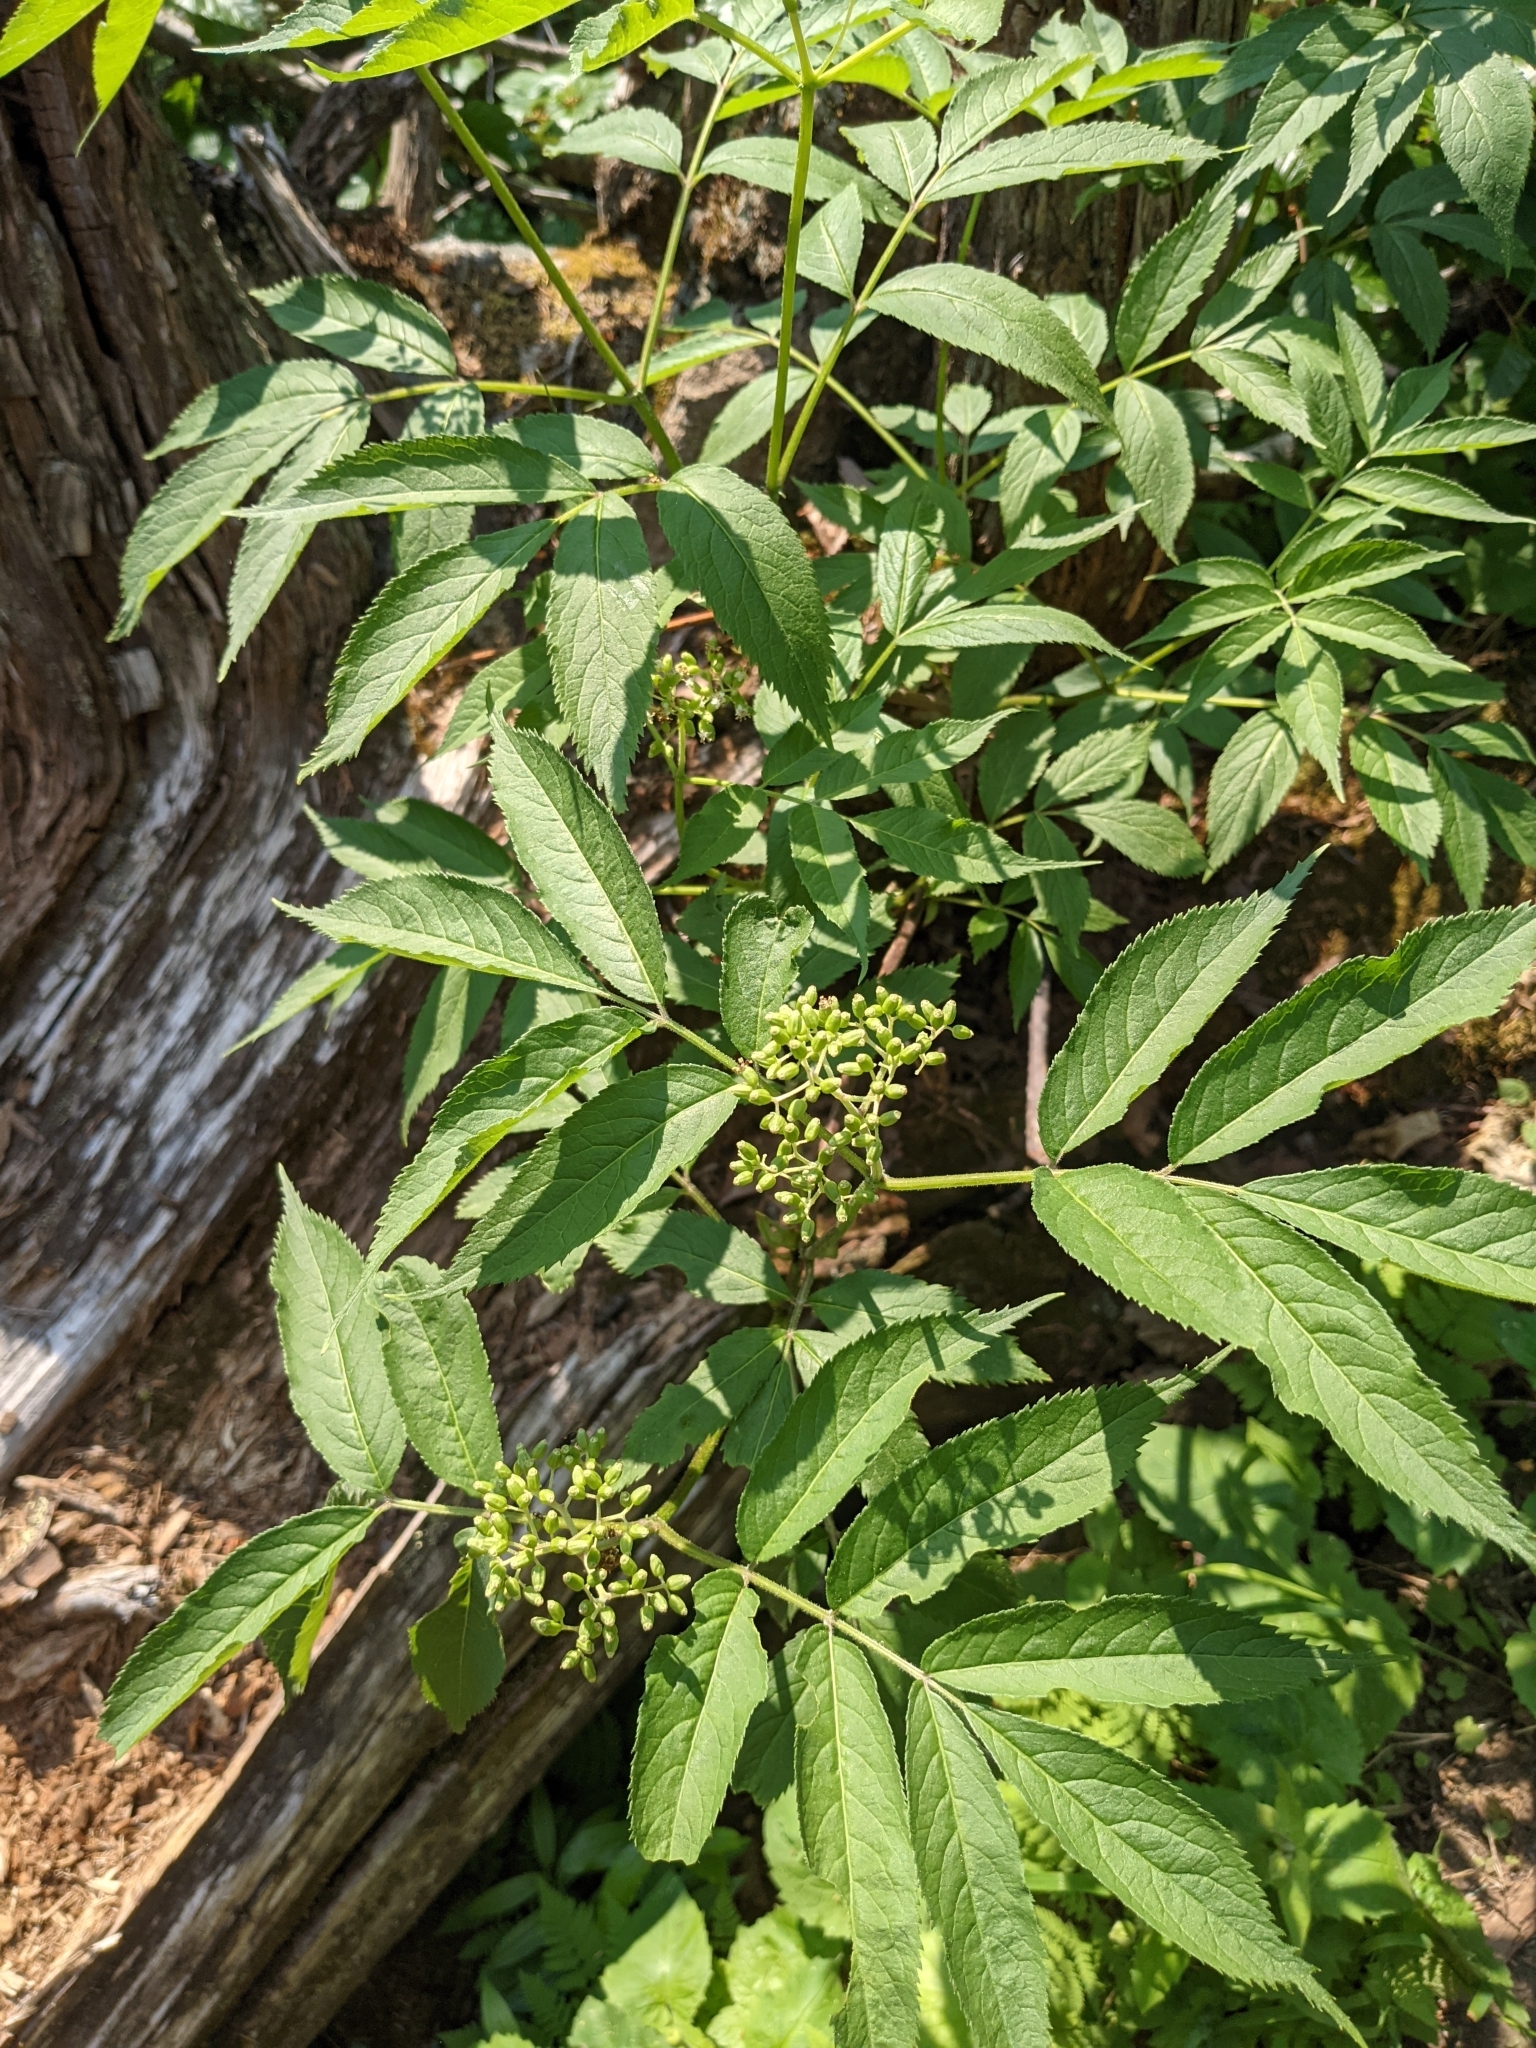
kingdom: Plantae
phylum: Tracheophyta
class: Magnoliopsida
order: Dipsacales
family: Viburnaceae
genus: Sambucus
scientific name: Sambucus racemosa
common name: Red-berried elder
